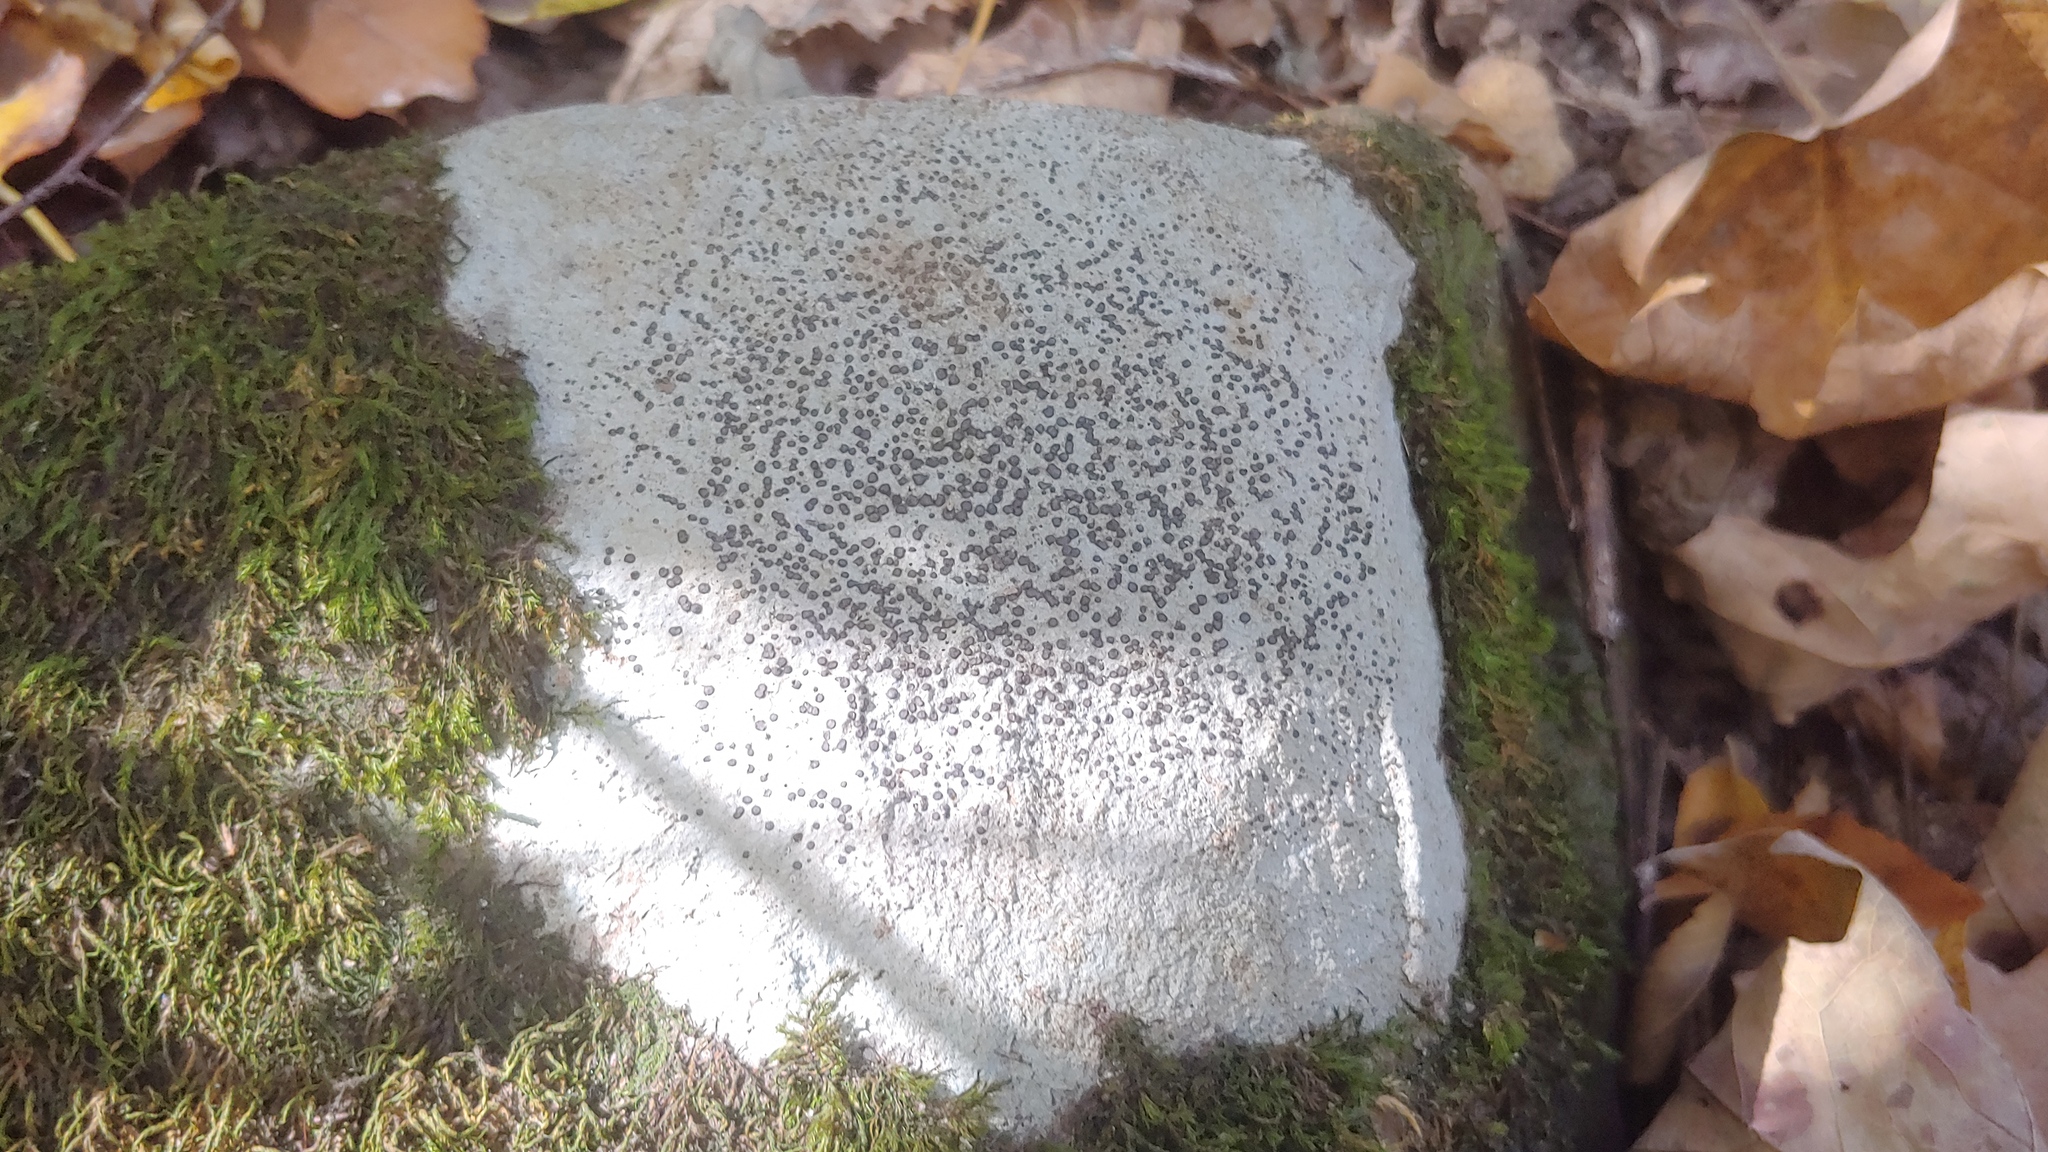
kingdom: Fungi
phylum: Ascomycota
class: Lecanoromycetes
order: Lecideales
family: Lecideaceae
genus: Porpidia
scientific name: Porpidia albocaerulescens
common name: Smokey-eyed boulder lichen
